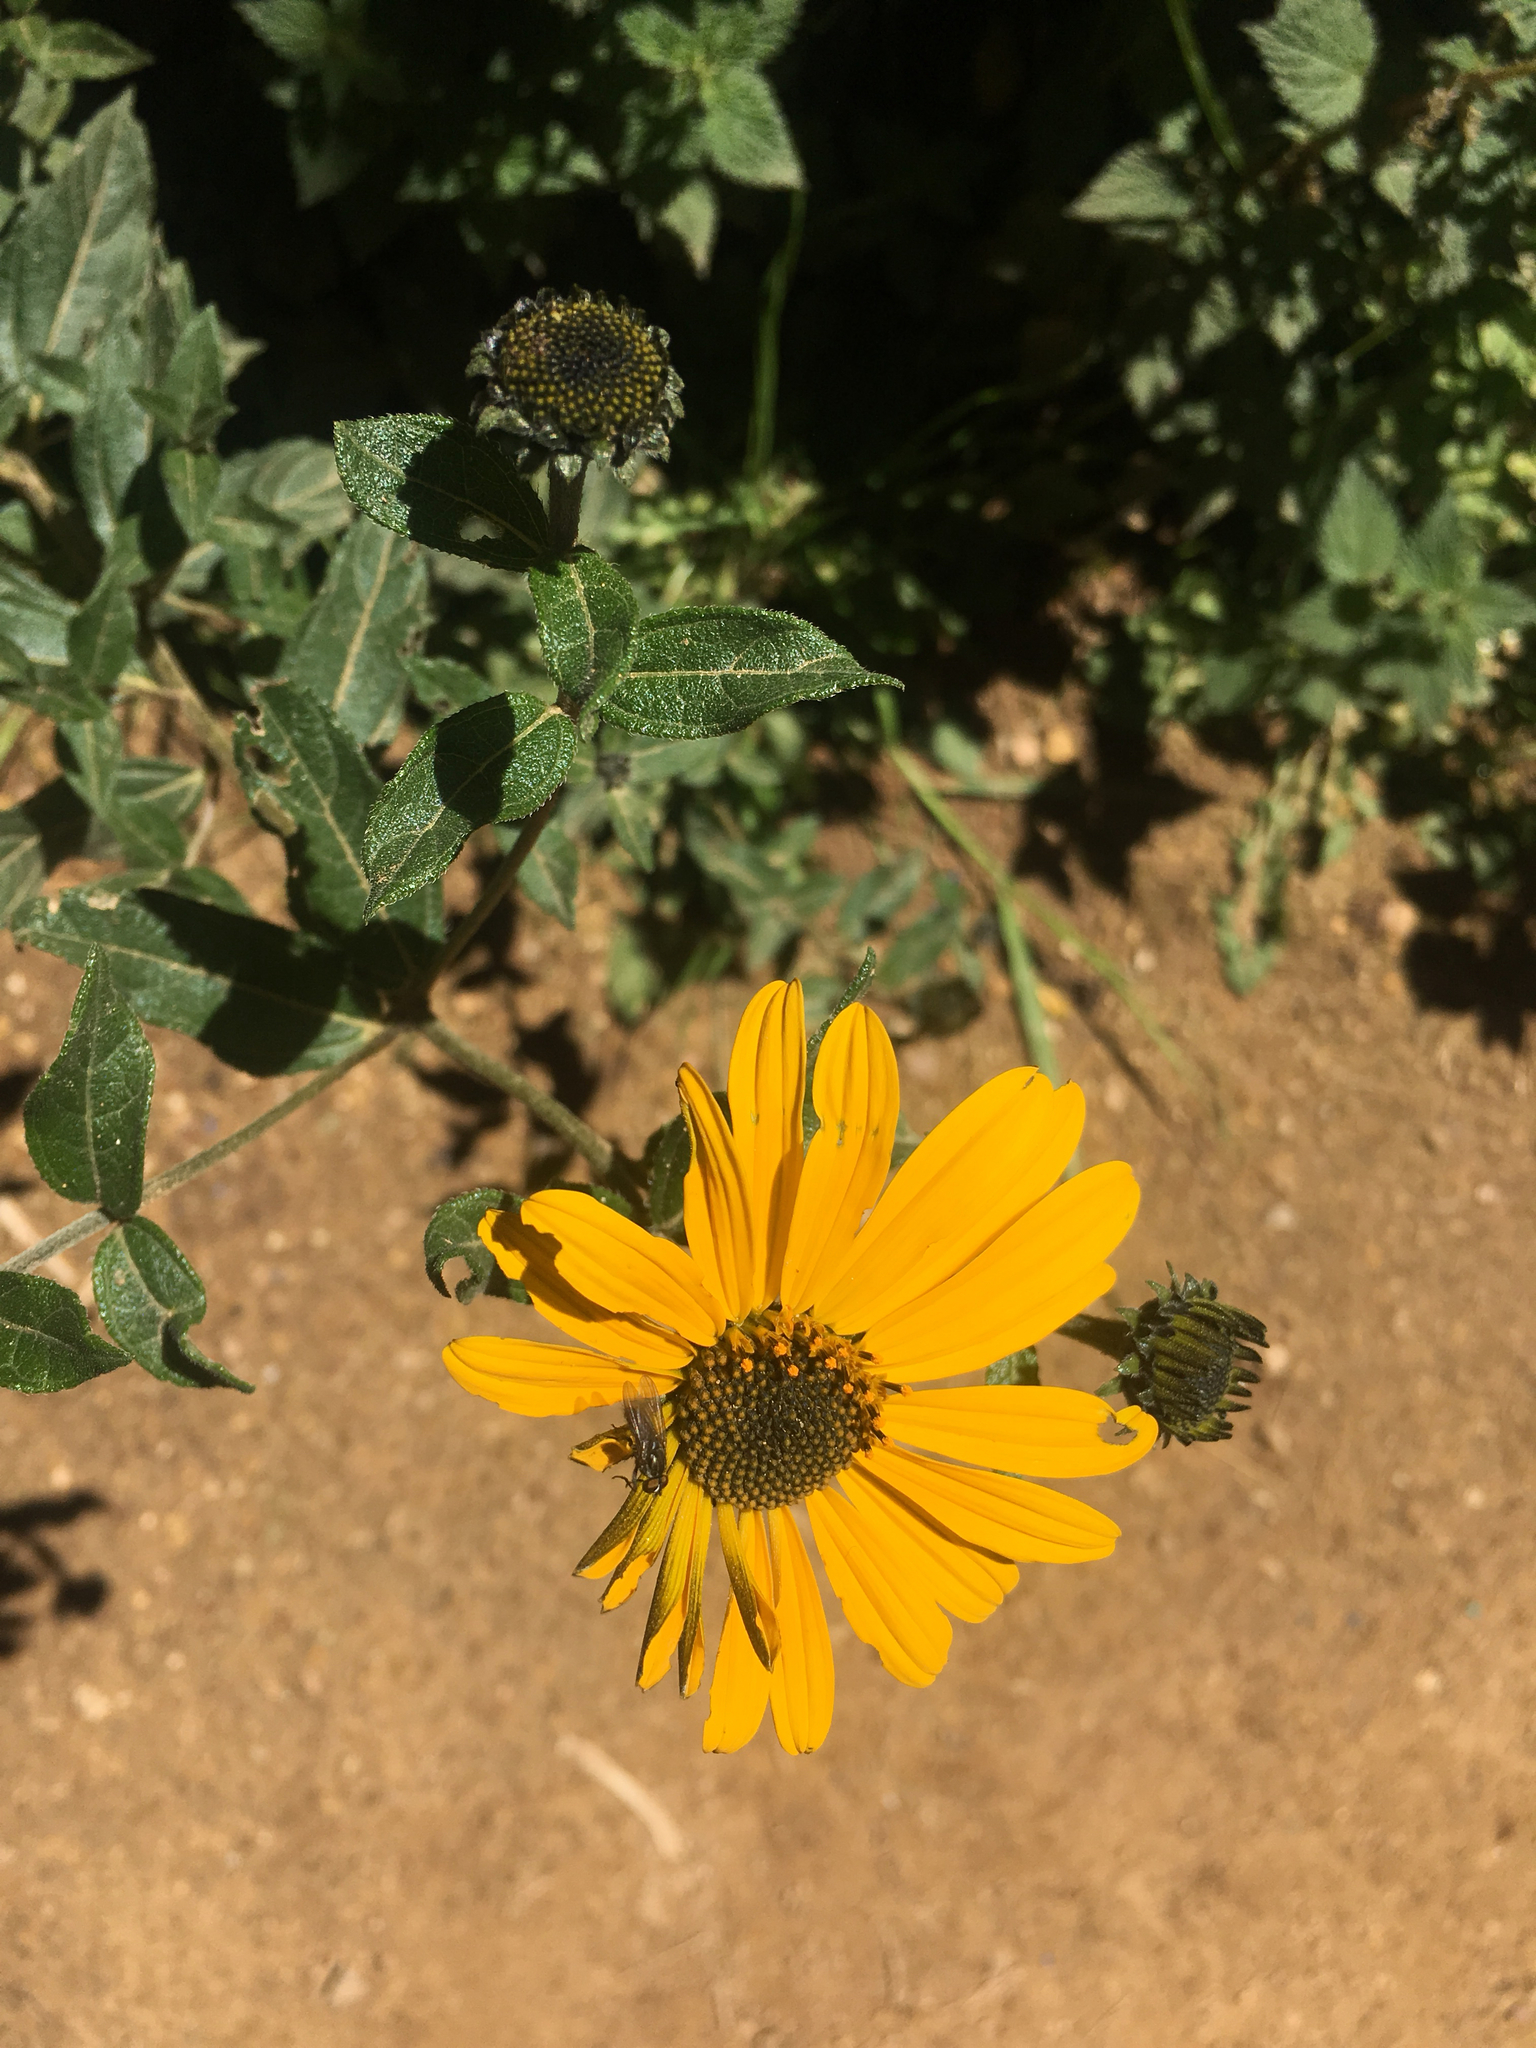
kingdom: Plantae
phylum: Tracheophyta
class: Magnoliopsida
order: Asterales
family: Asteraceae
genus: Aldama
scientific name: Aldama helianthoides
